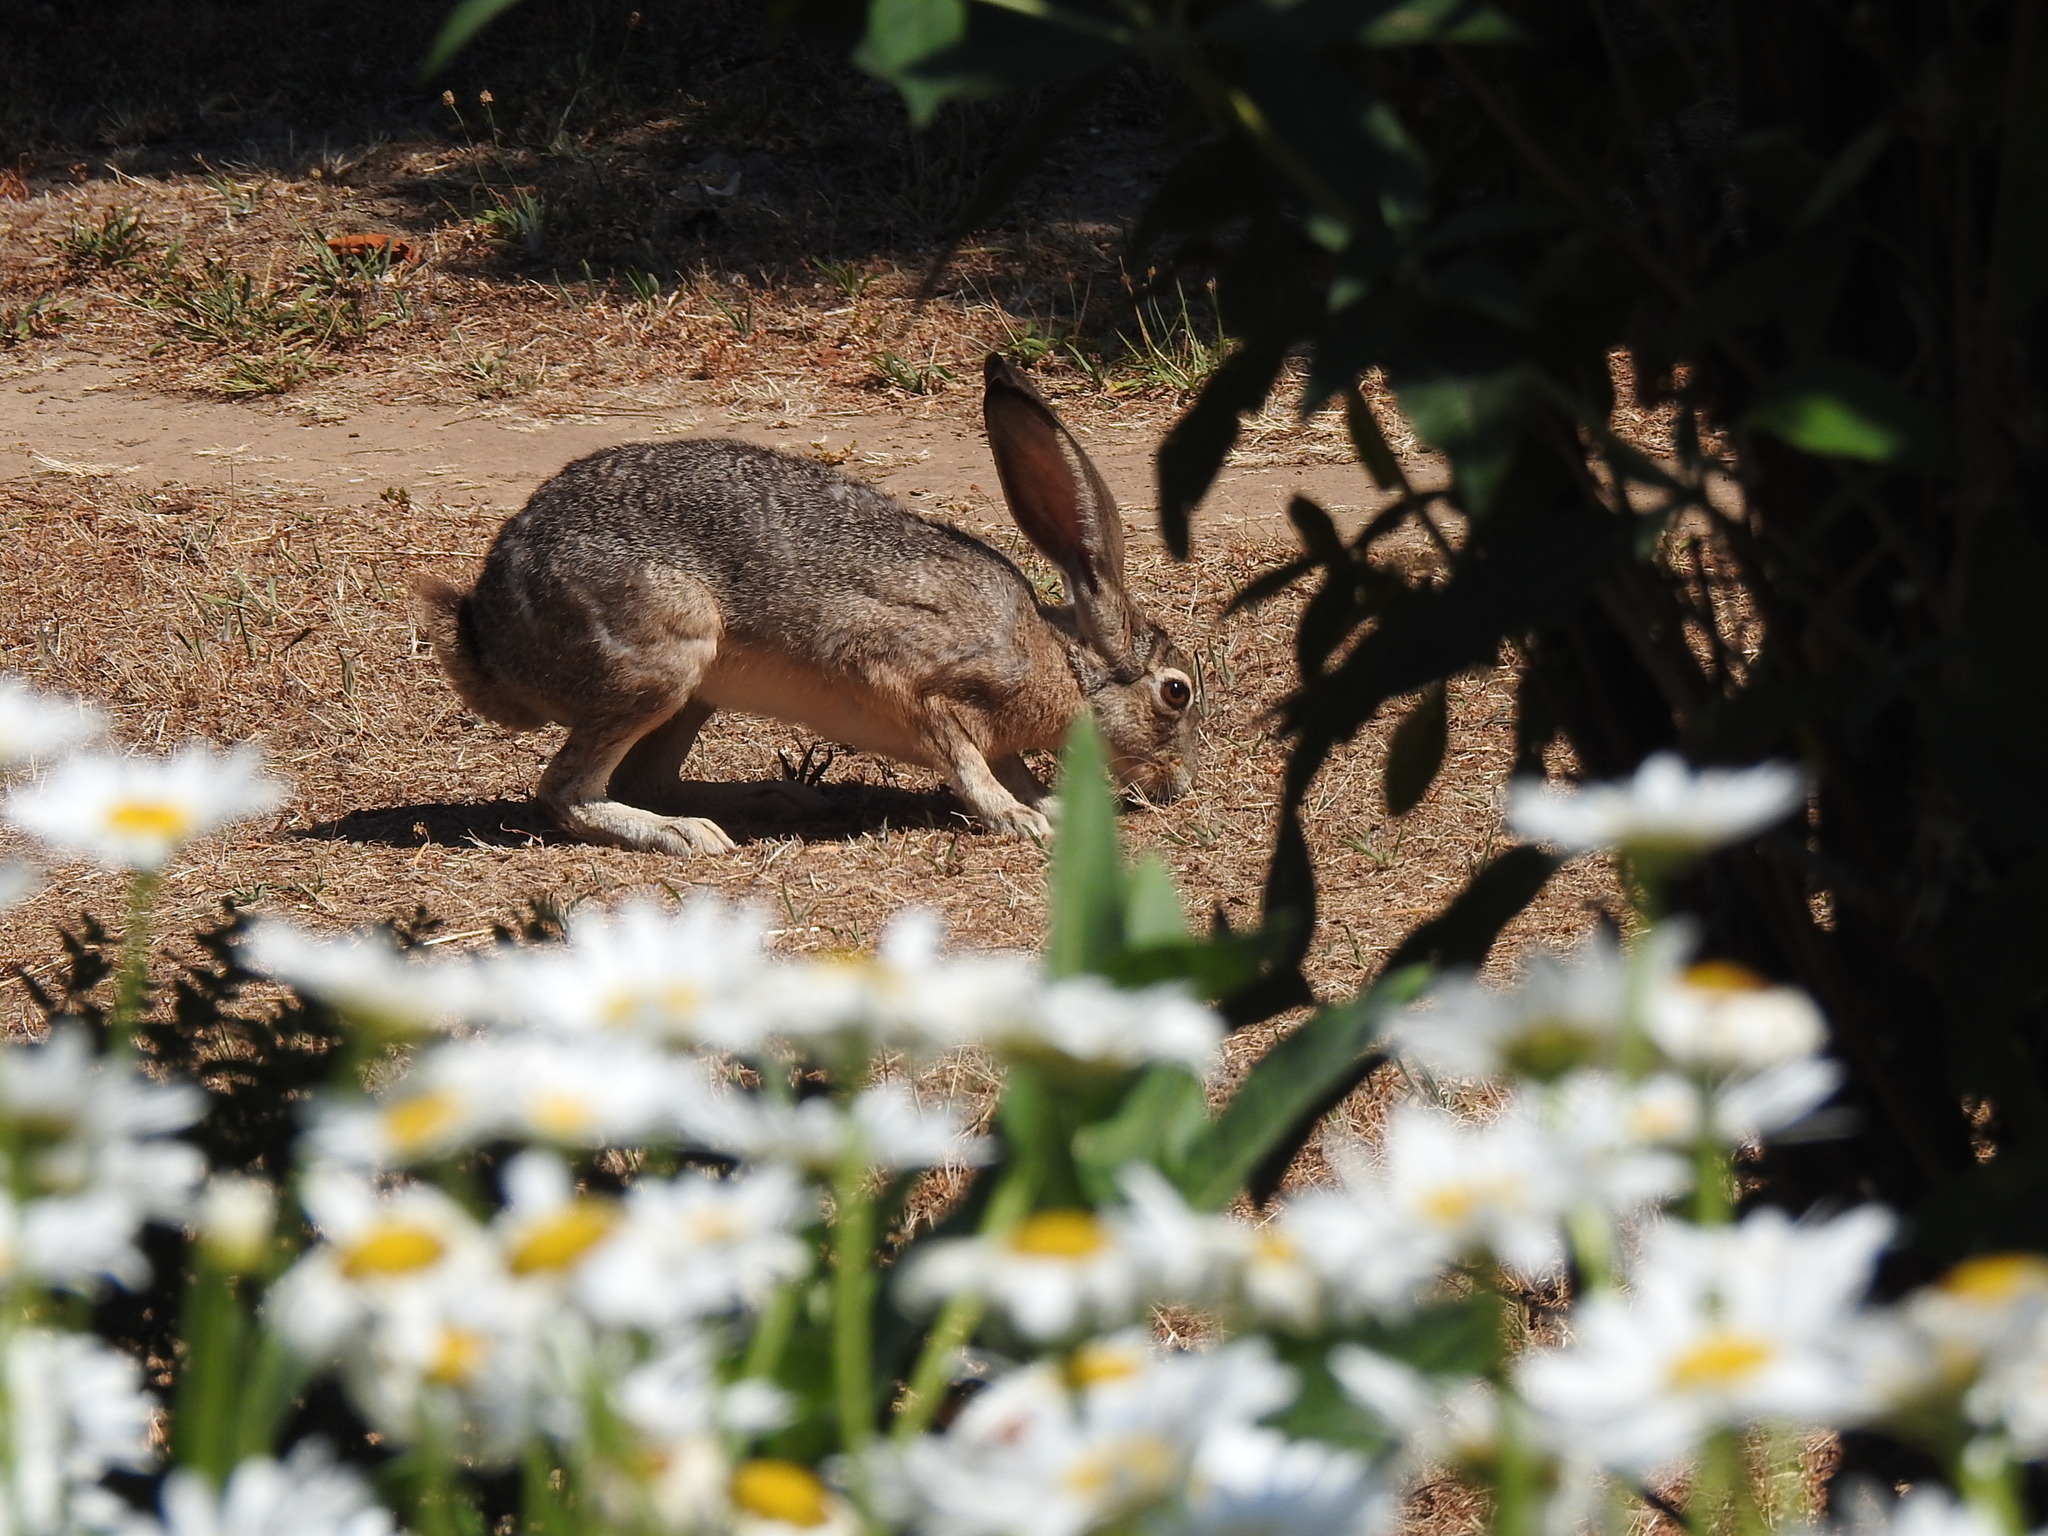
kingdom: Animalia
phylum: Chordata
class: Mammalia
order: Lagomorpha
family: Leporidae
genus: Lepus
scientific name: Lepus californicus
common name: Black-tailed jackrabbit
